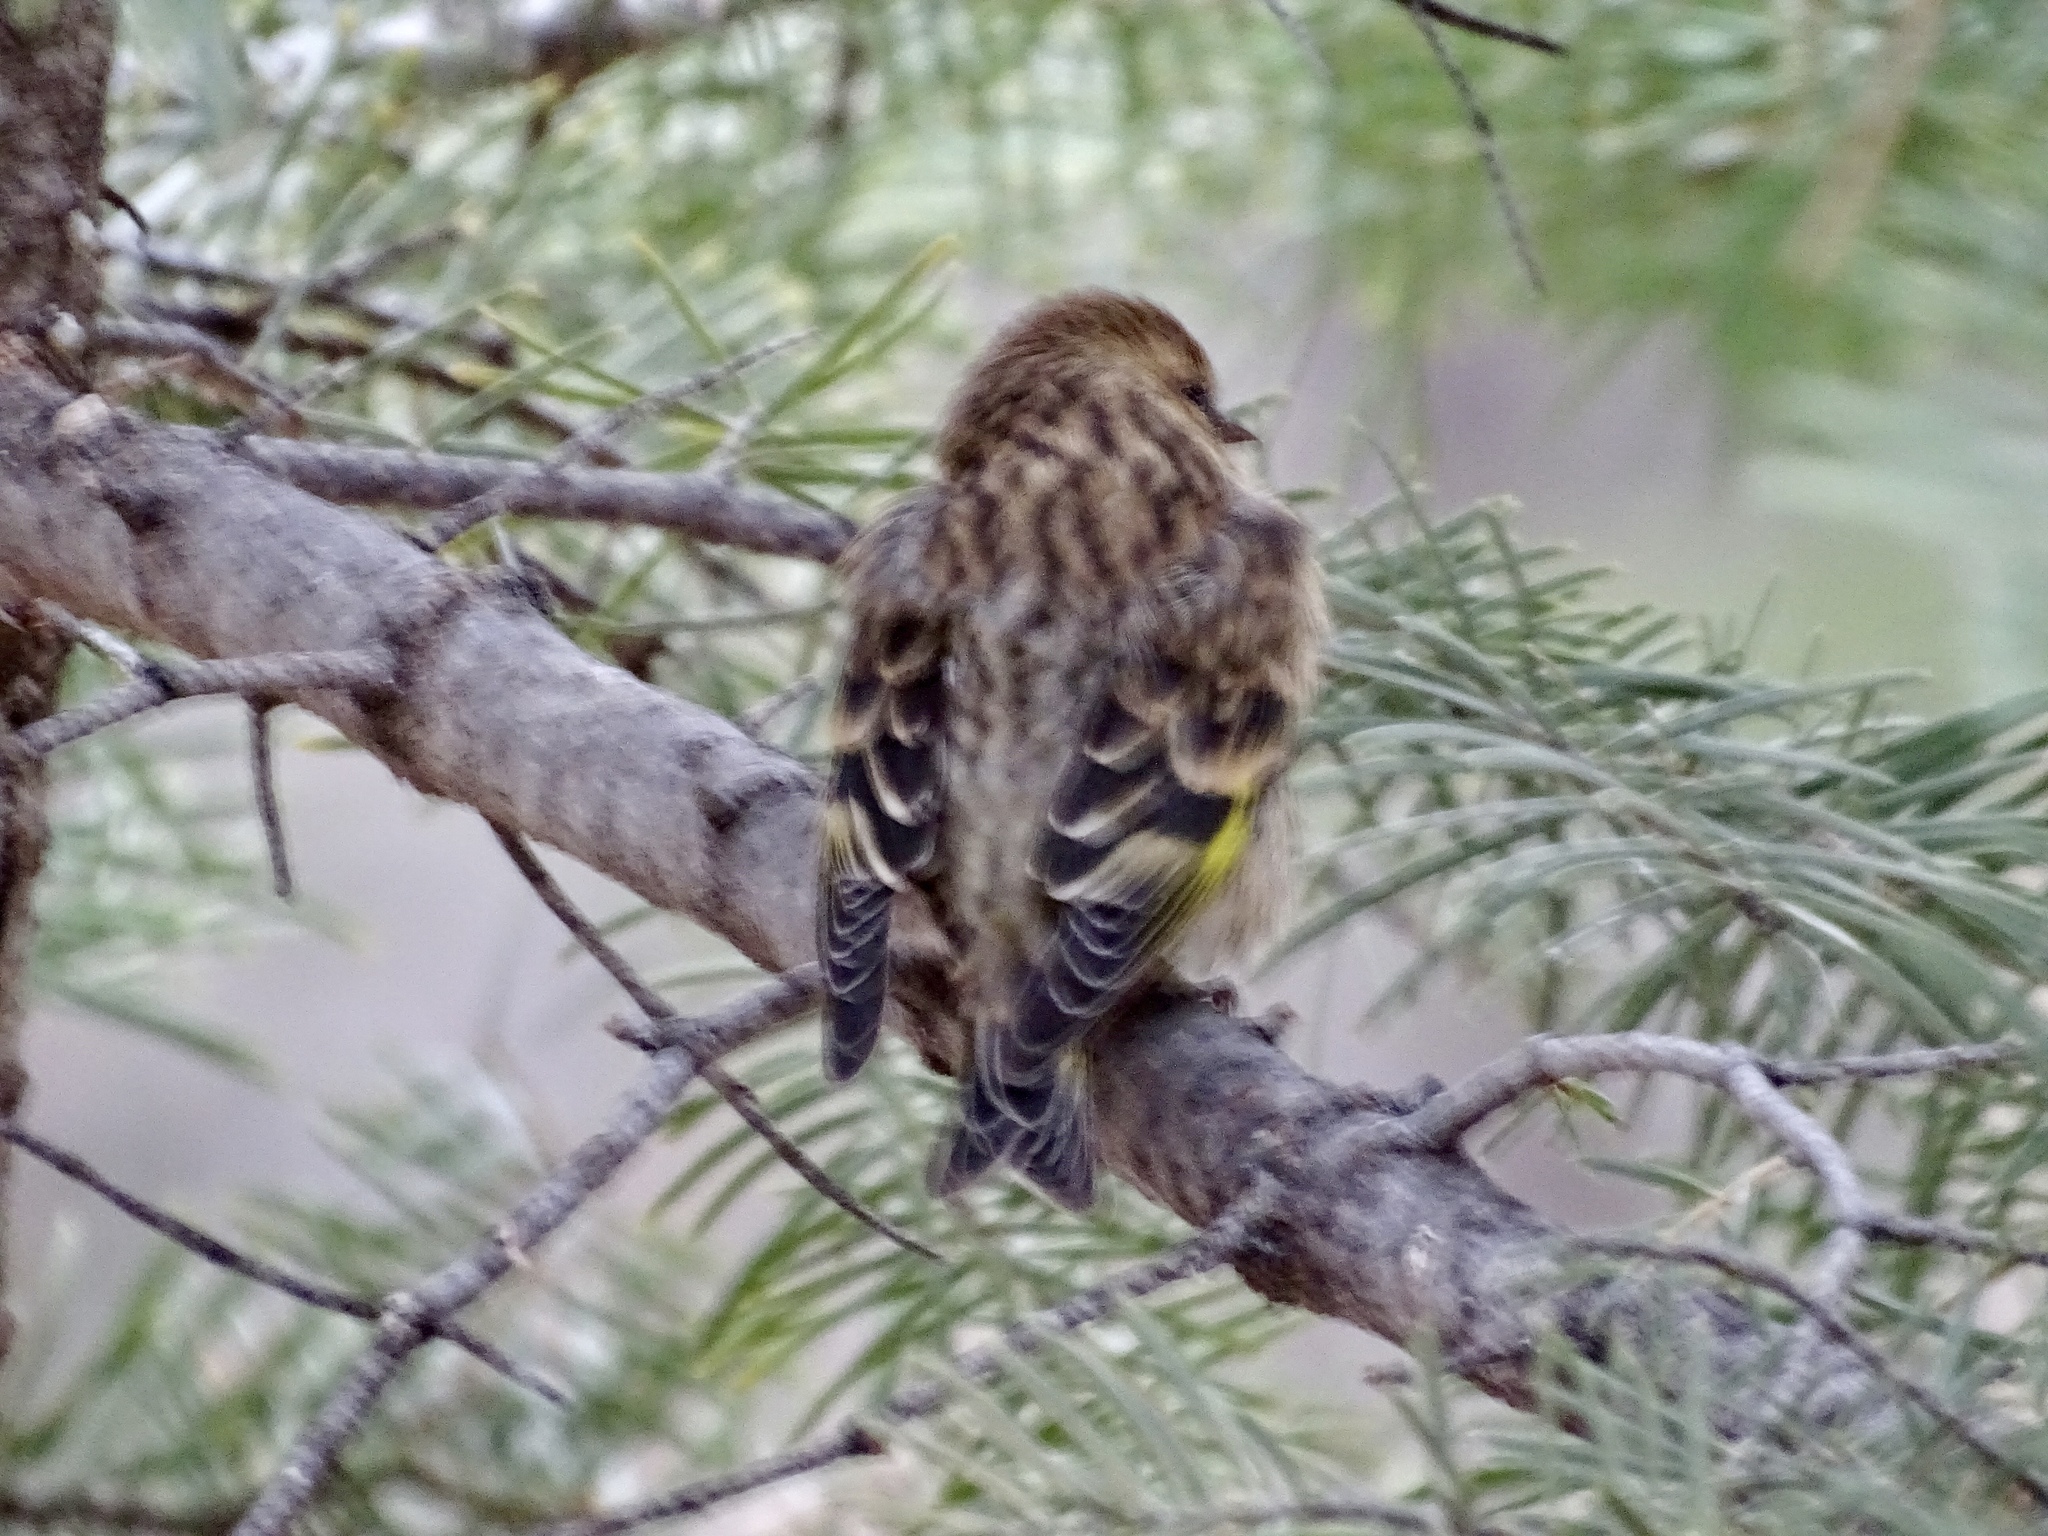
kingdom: Animalia
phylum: Chordata
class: Aves
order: Passeriformes
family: Fringillidae
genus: Spinus
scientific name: Spinus pinus
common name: Pine siskin
